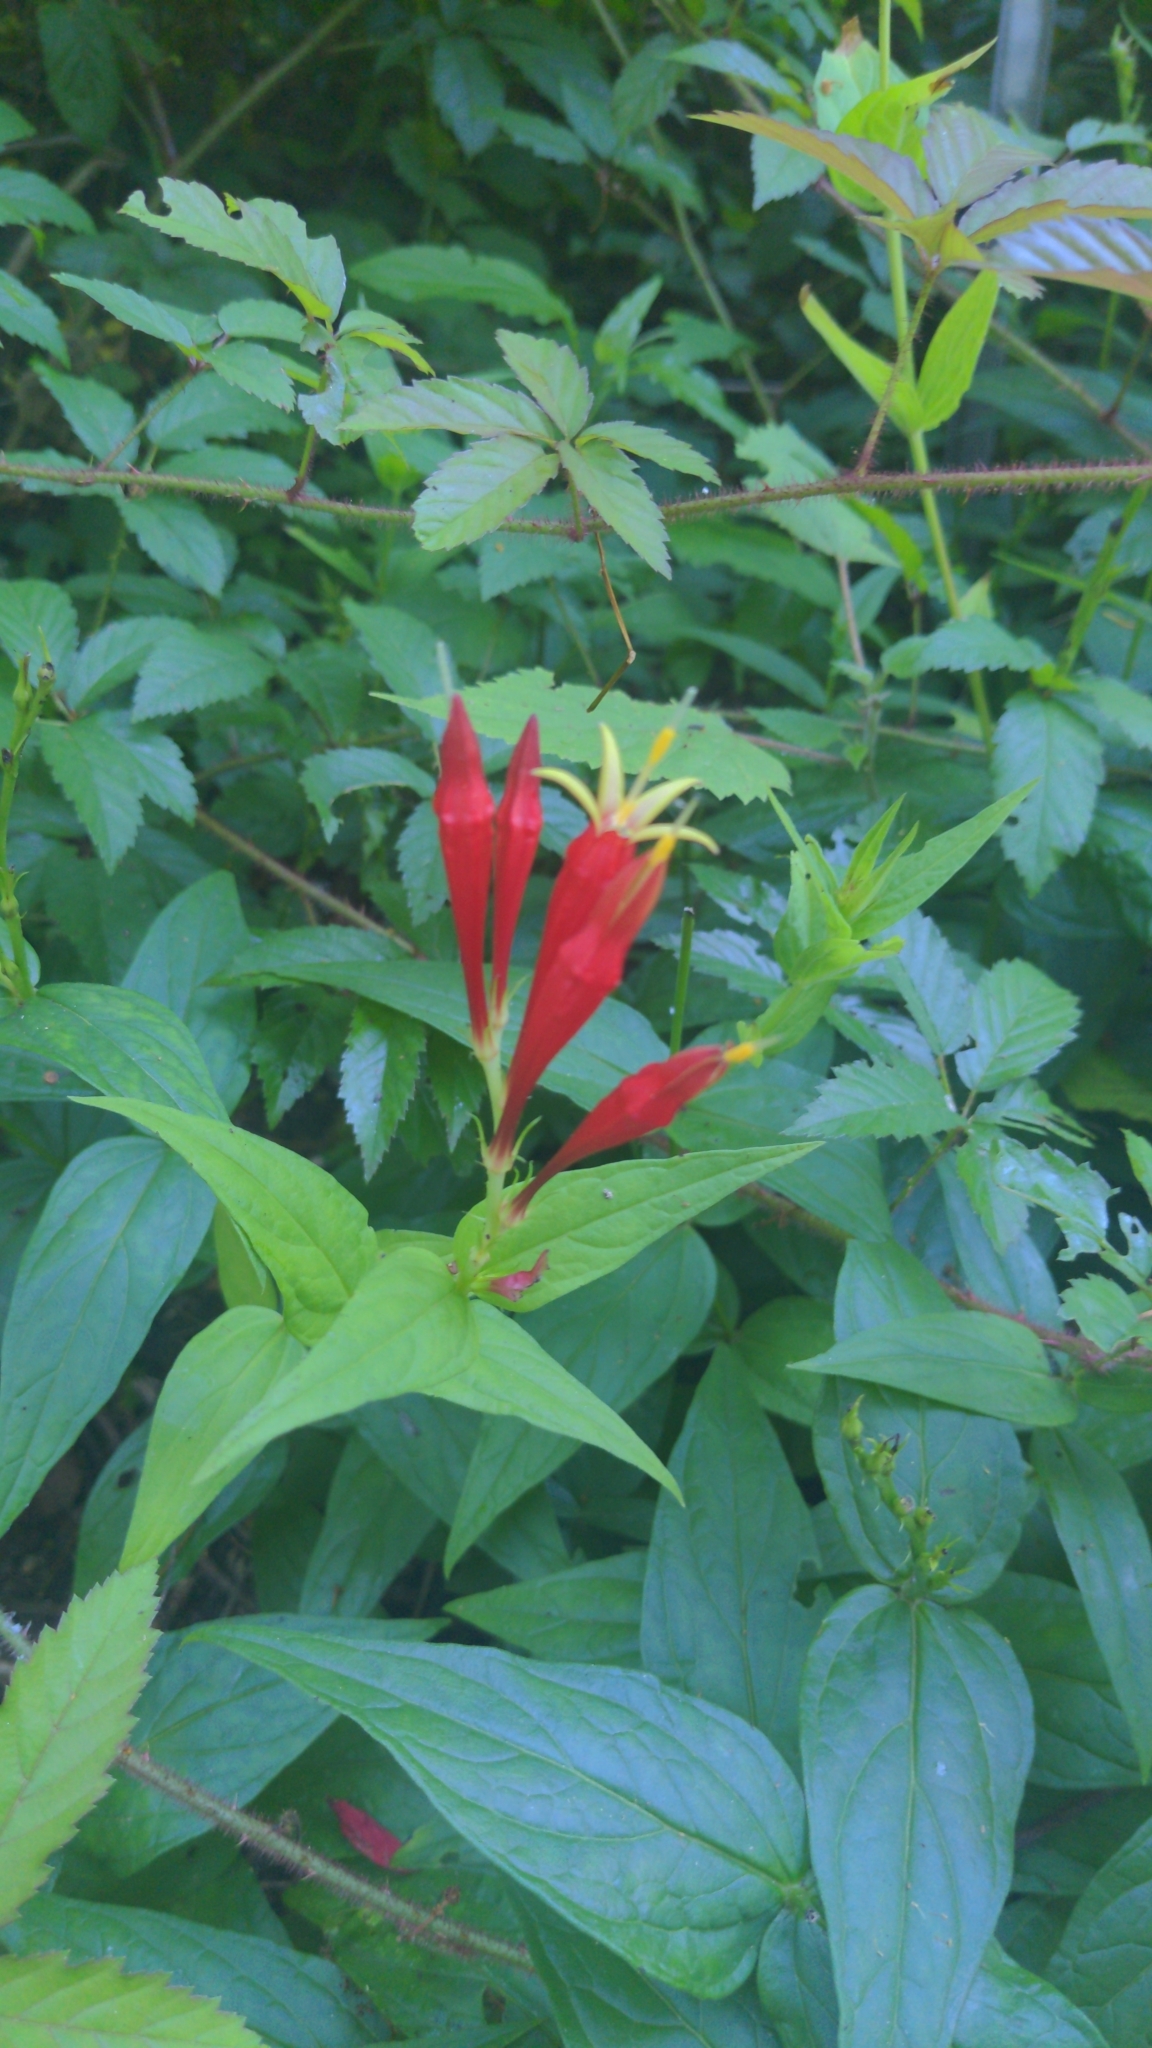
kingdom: Plantae
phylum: Tracheophyta
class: Magnoliopsida
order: Gentianales
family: Loganiaceae
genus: Spigelia
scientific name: Spigelia marilandica
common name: Indian-pink
